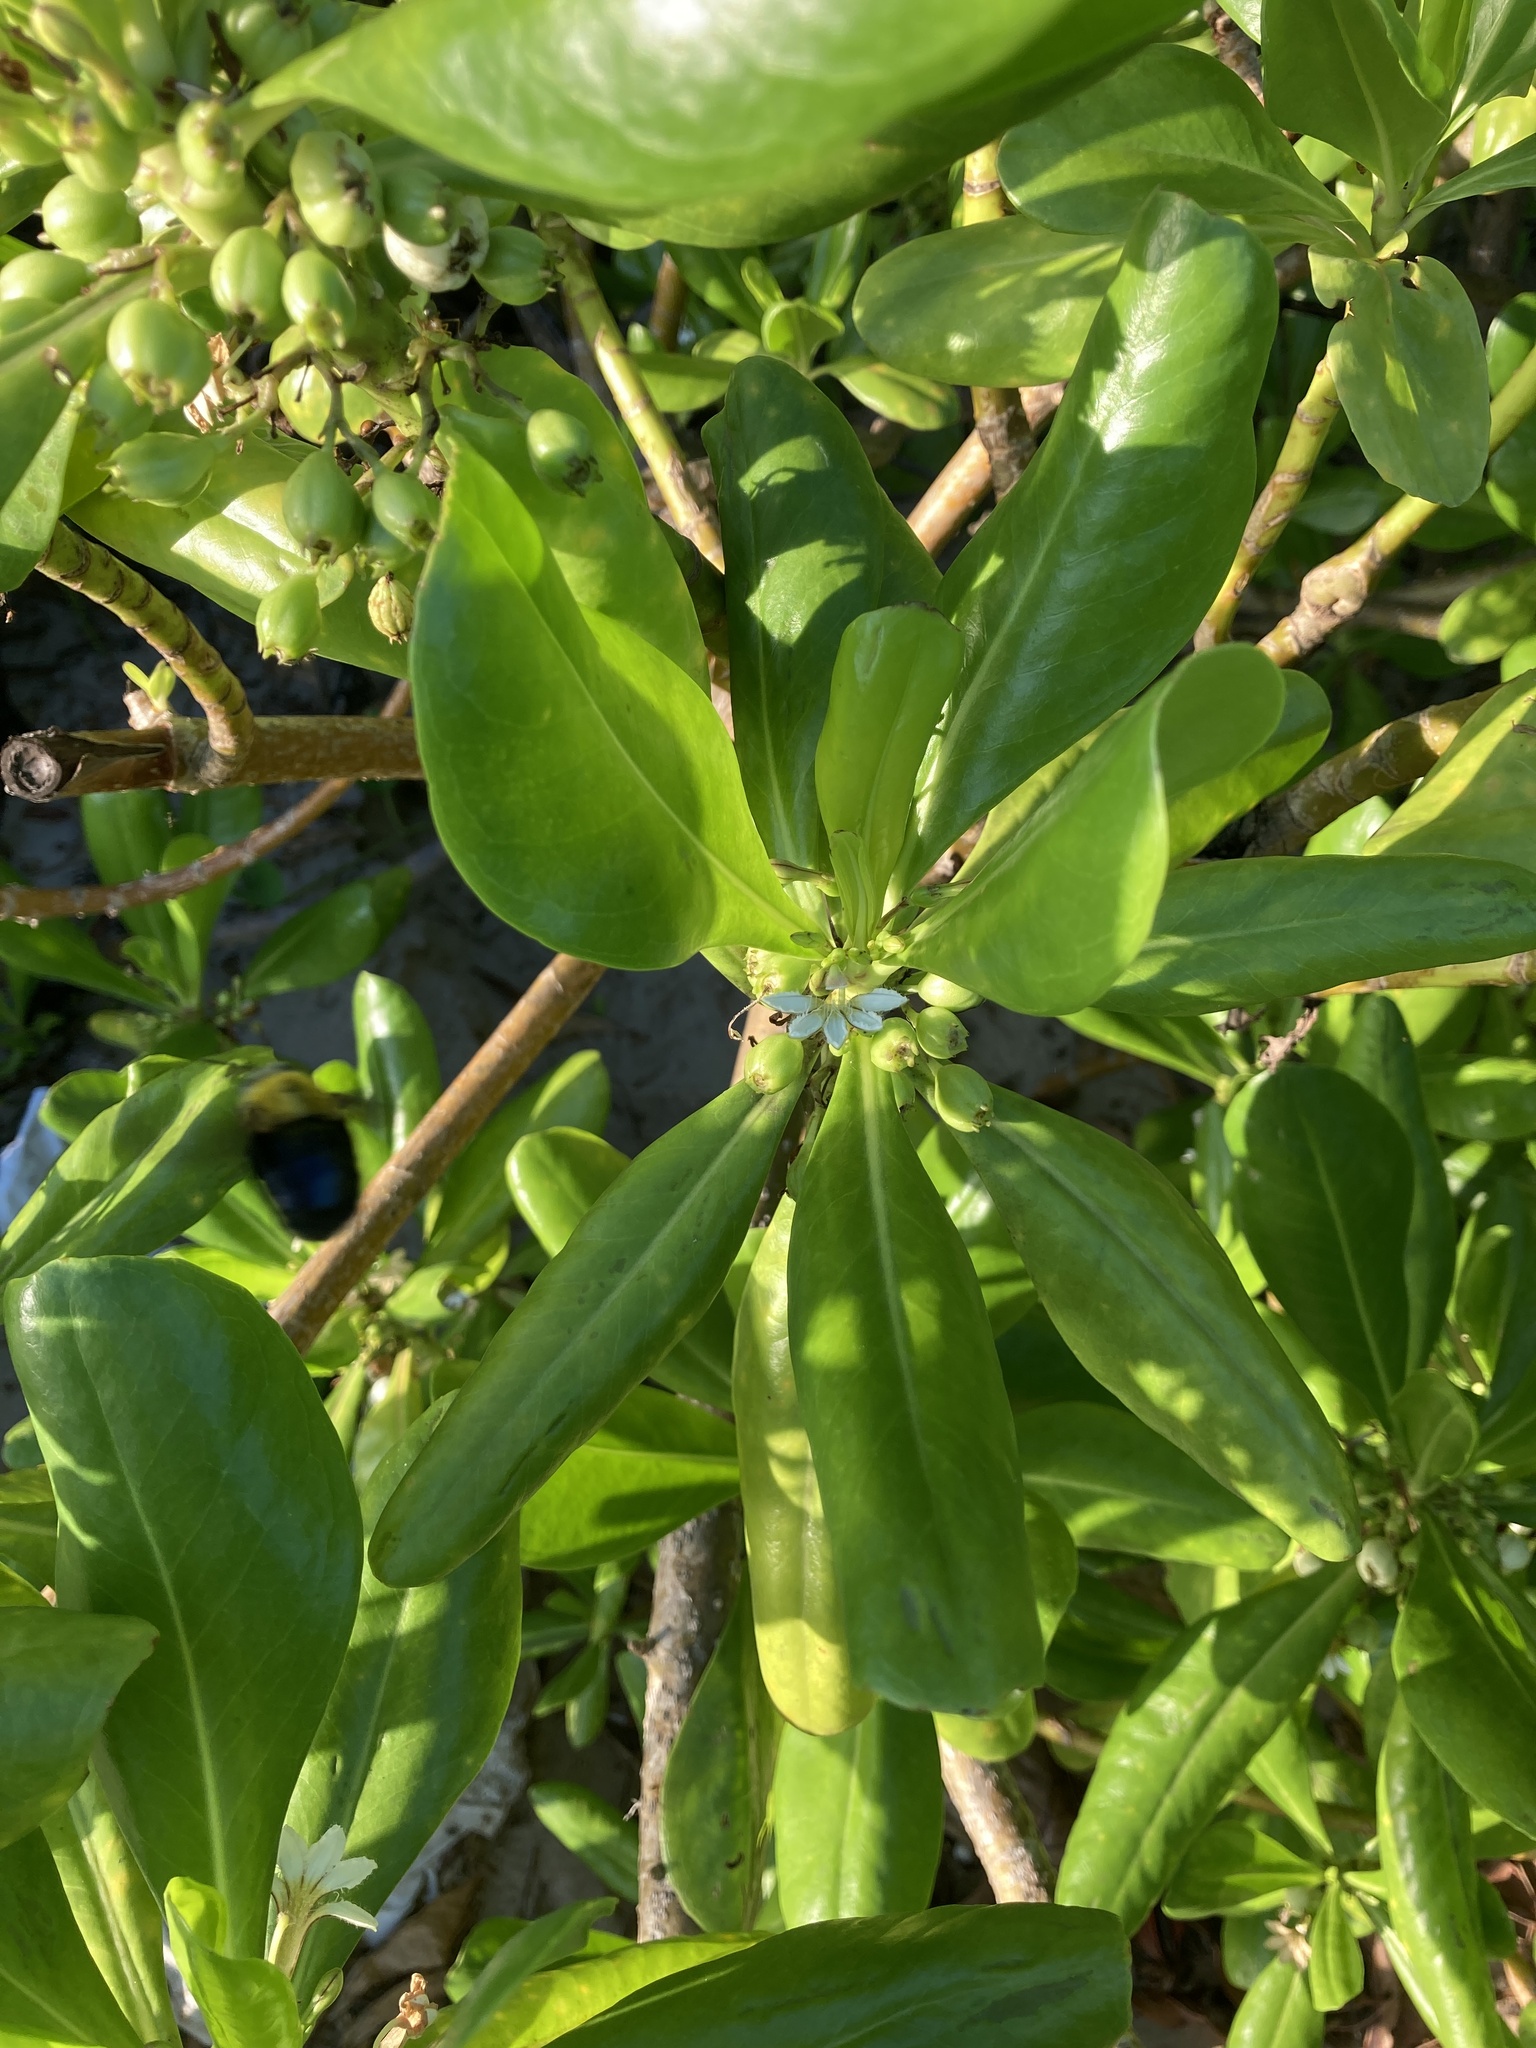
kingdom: Plantae
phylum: Tracheophyta
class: Magnoliopsida
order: Asterales
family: Goodeniaceae
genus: Scaevola
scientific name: Scaevola taccada
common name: Sea lettucetree
